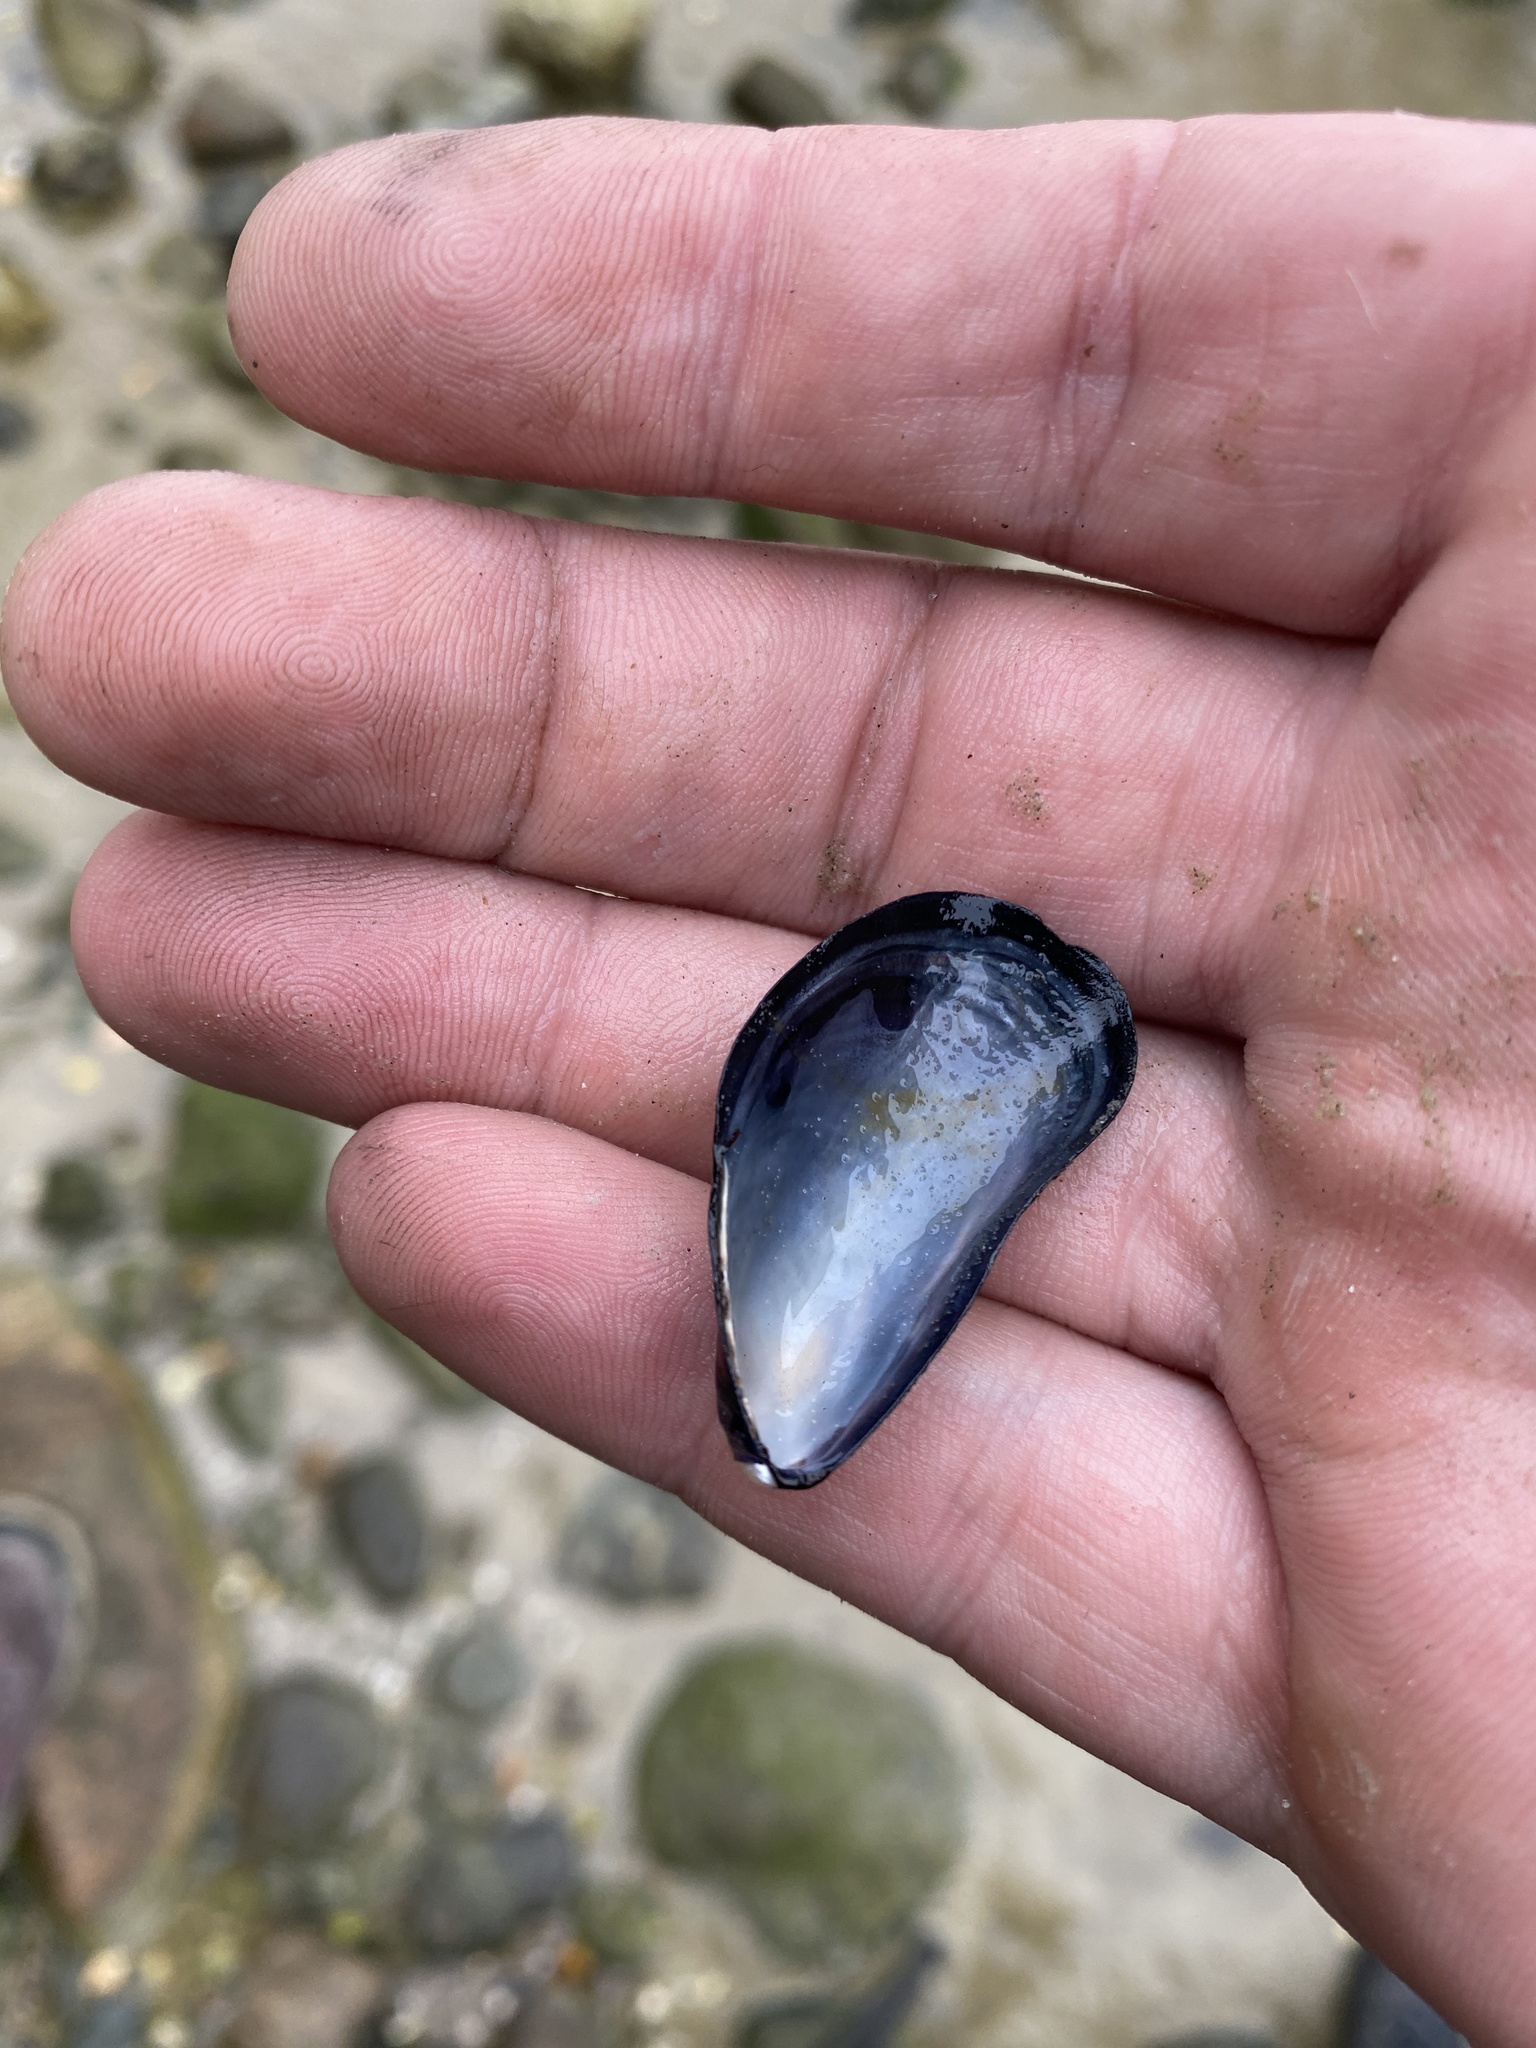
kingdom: Animalia
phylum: Mollusca
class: Bivalvia
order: Mytilida
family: Mytilidae
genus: Mytilus
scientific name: Mytilus edulis
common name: Blue mussel
